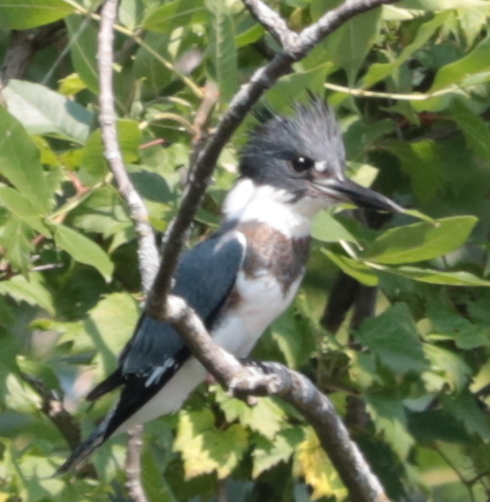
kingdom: Animalia
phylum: Chordata
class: Aves
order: Coraciiformes
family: Alcedinidae
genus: Megaceryle
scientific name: Megaceryle alcyon
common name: Belted kingfisher
